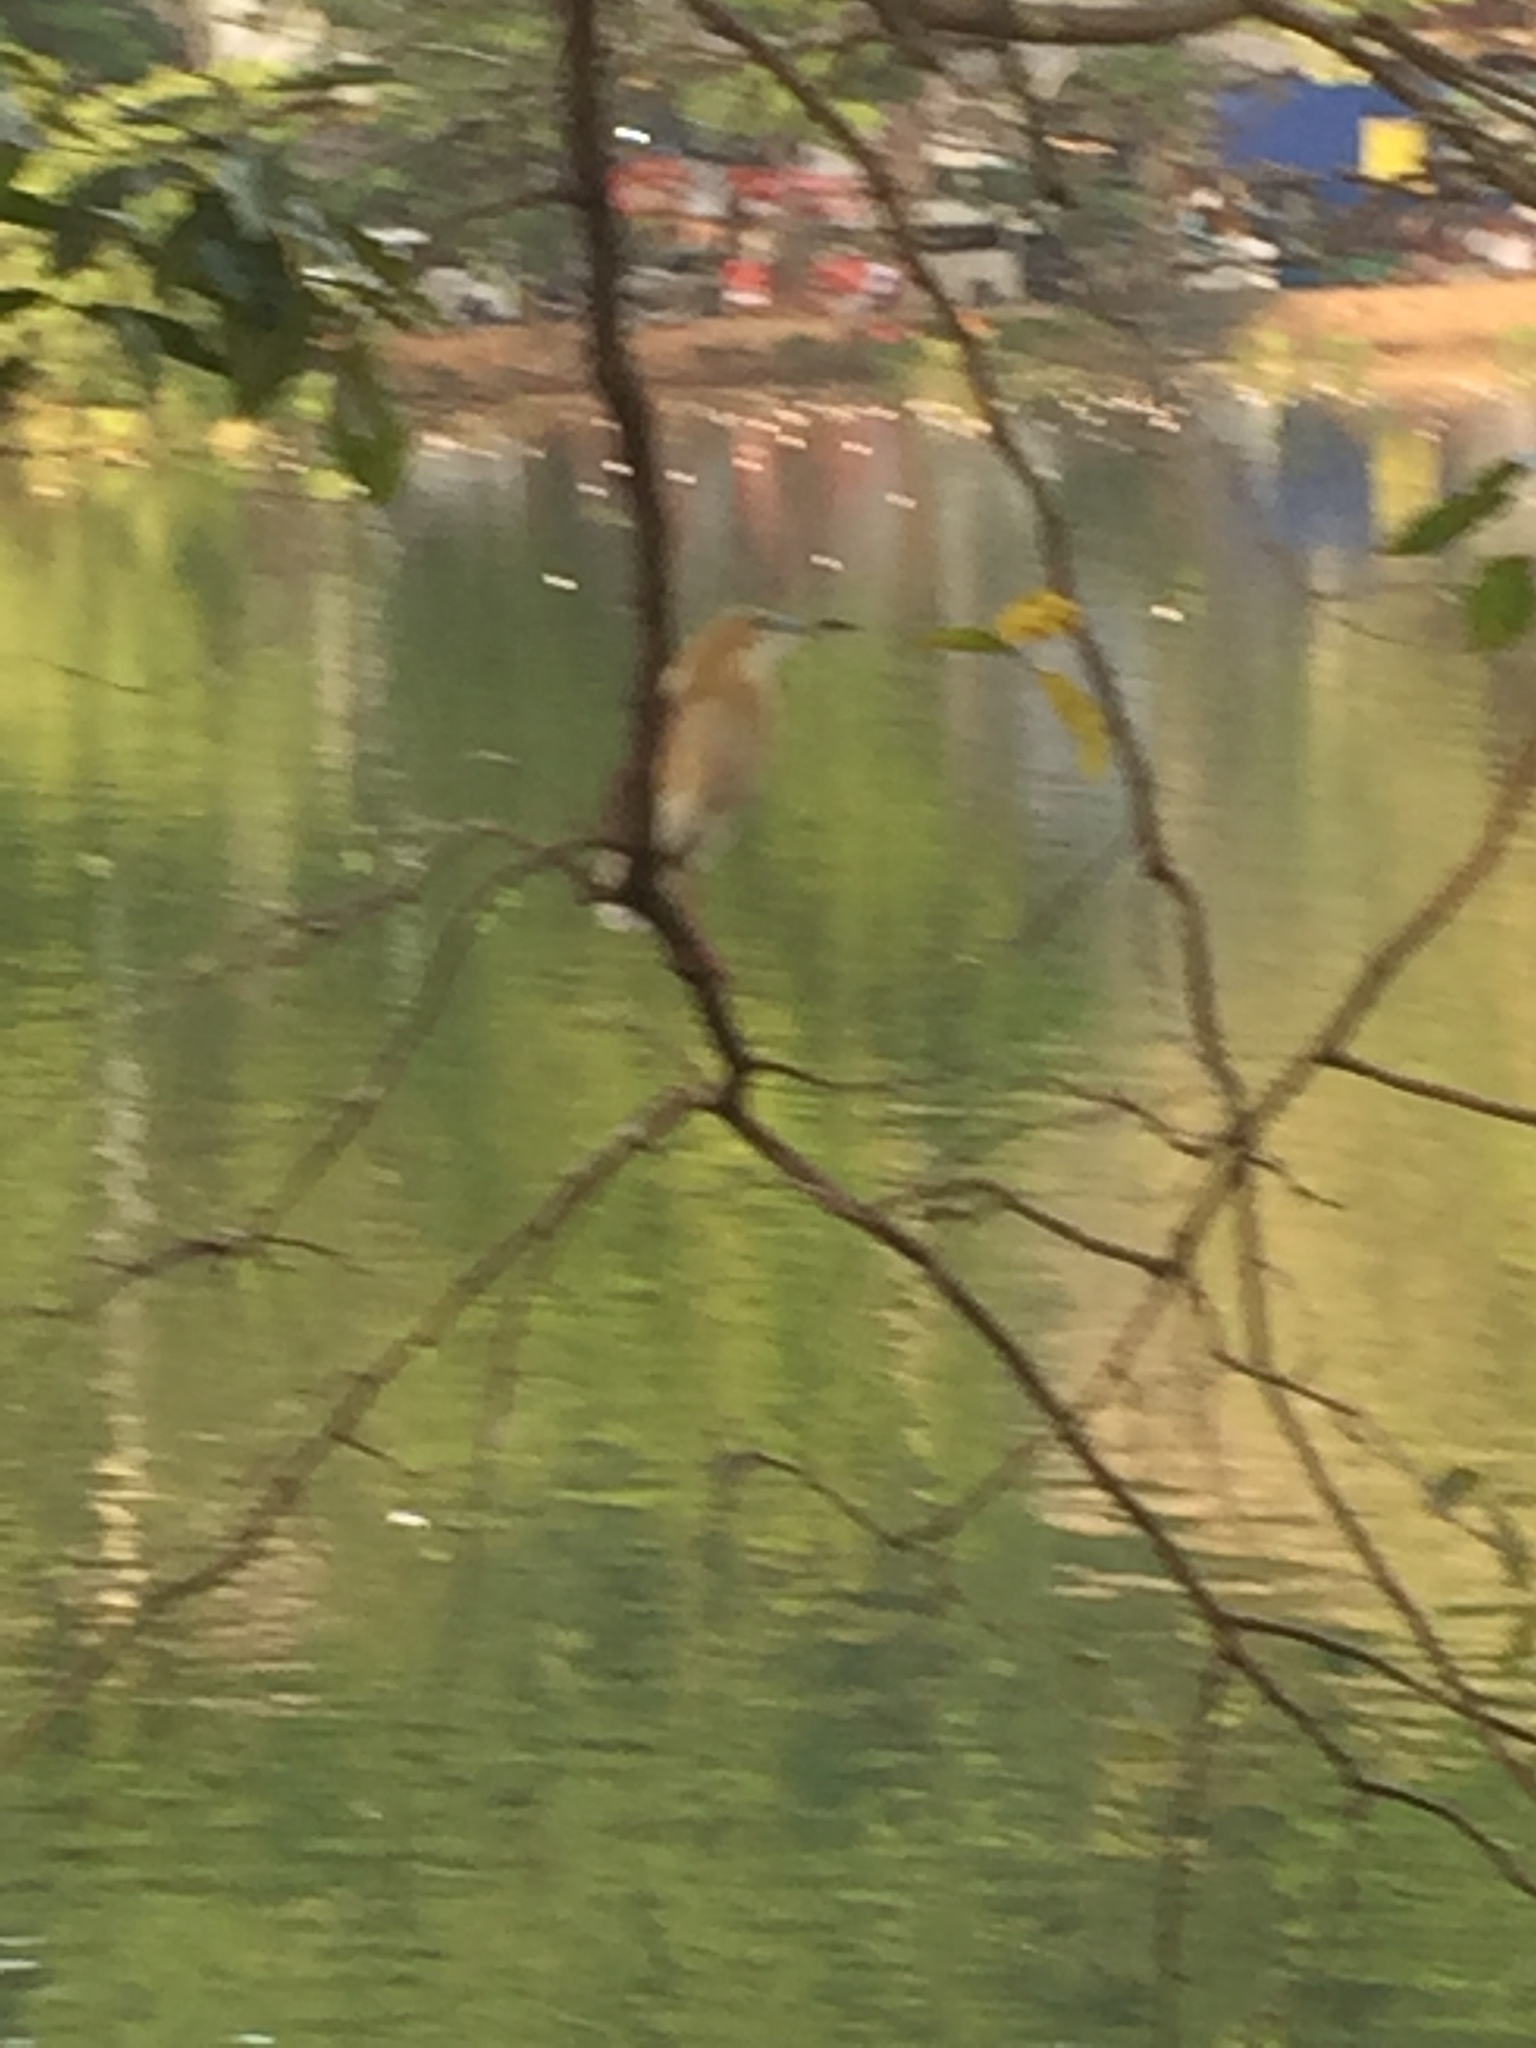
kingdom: Animalia
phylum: Chordata
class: Aves
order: Pelecaniformes
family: Ardeidae
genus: Ardeola
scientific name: Ardeola grayii
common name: Indian pond heron
